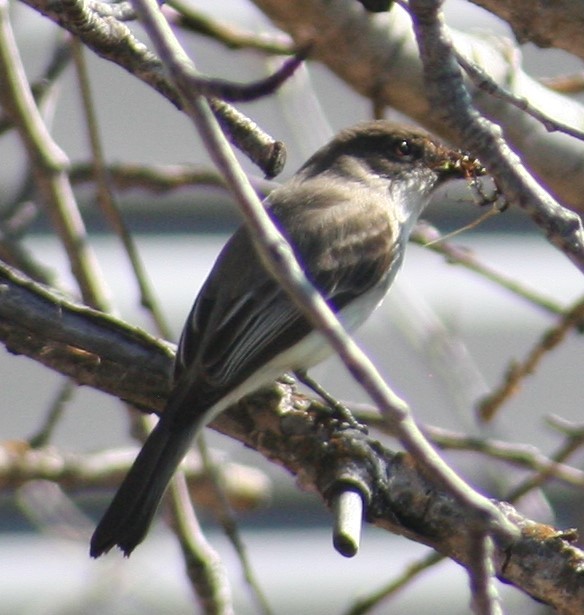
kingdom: Animalia
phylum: Chordata
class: Aves
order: Passeriformes
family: Tyrannidae
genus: Sayornis
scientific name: Sayornis phoebe
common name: Eastern phoebe
